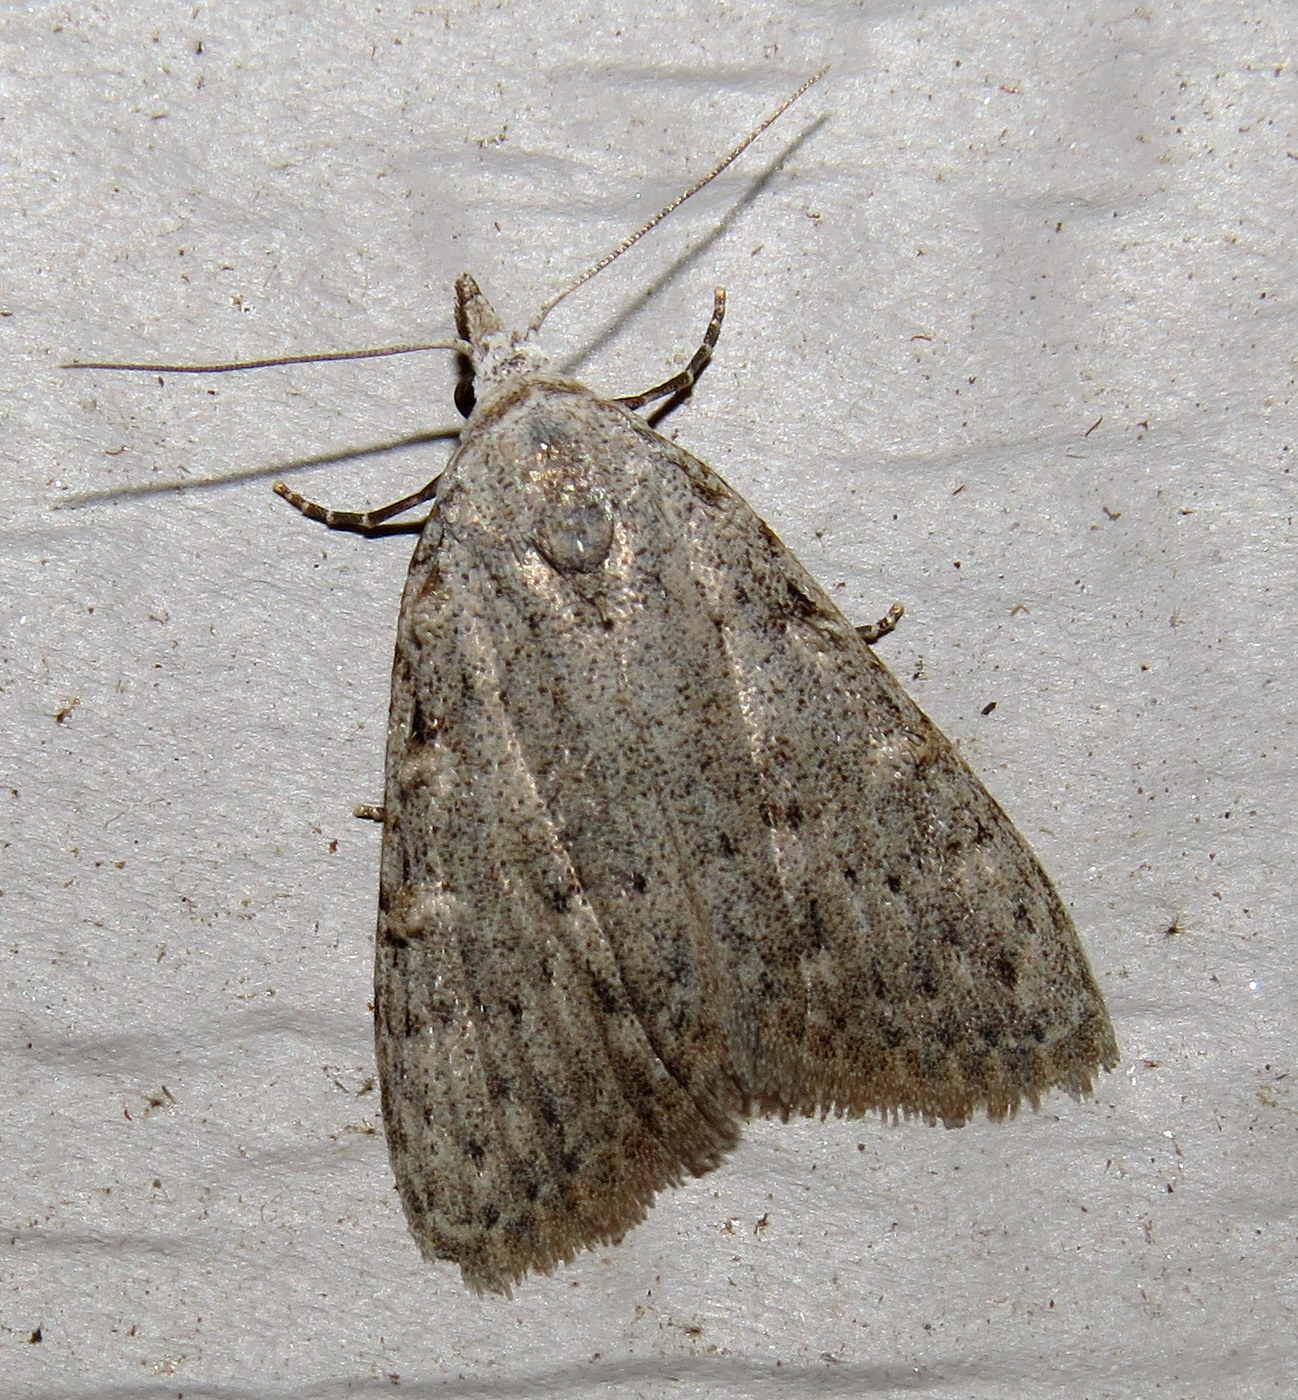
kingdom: Animalia
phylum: Arthropoda
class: Insecta
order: Lepidoptera
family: Nolidae
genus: Nola
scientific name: Nola clethrae
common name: Sweet pepperbush nola moth
